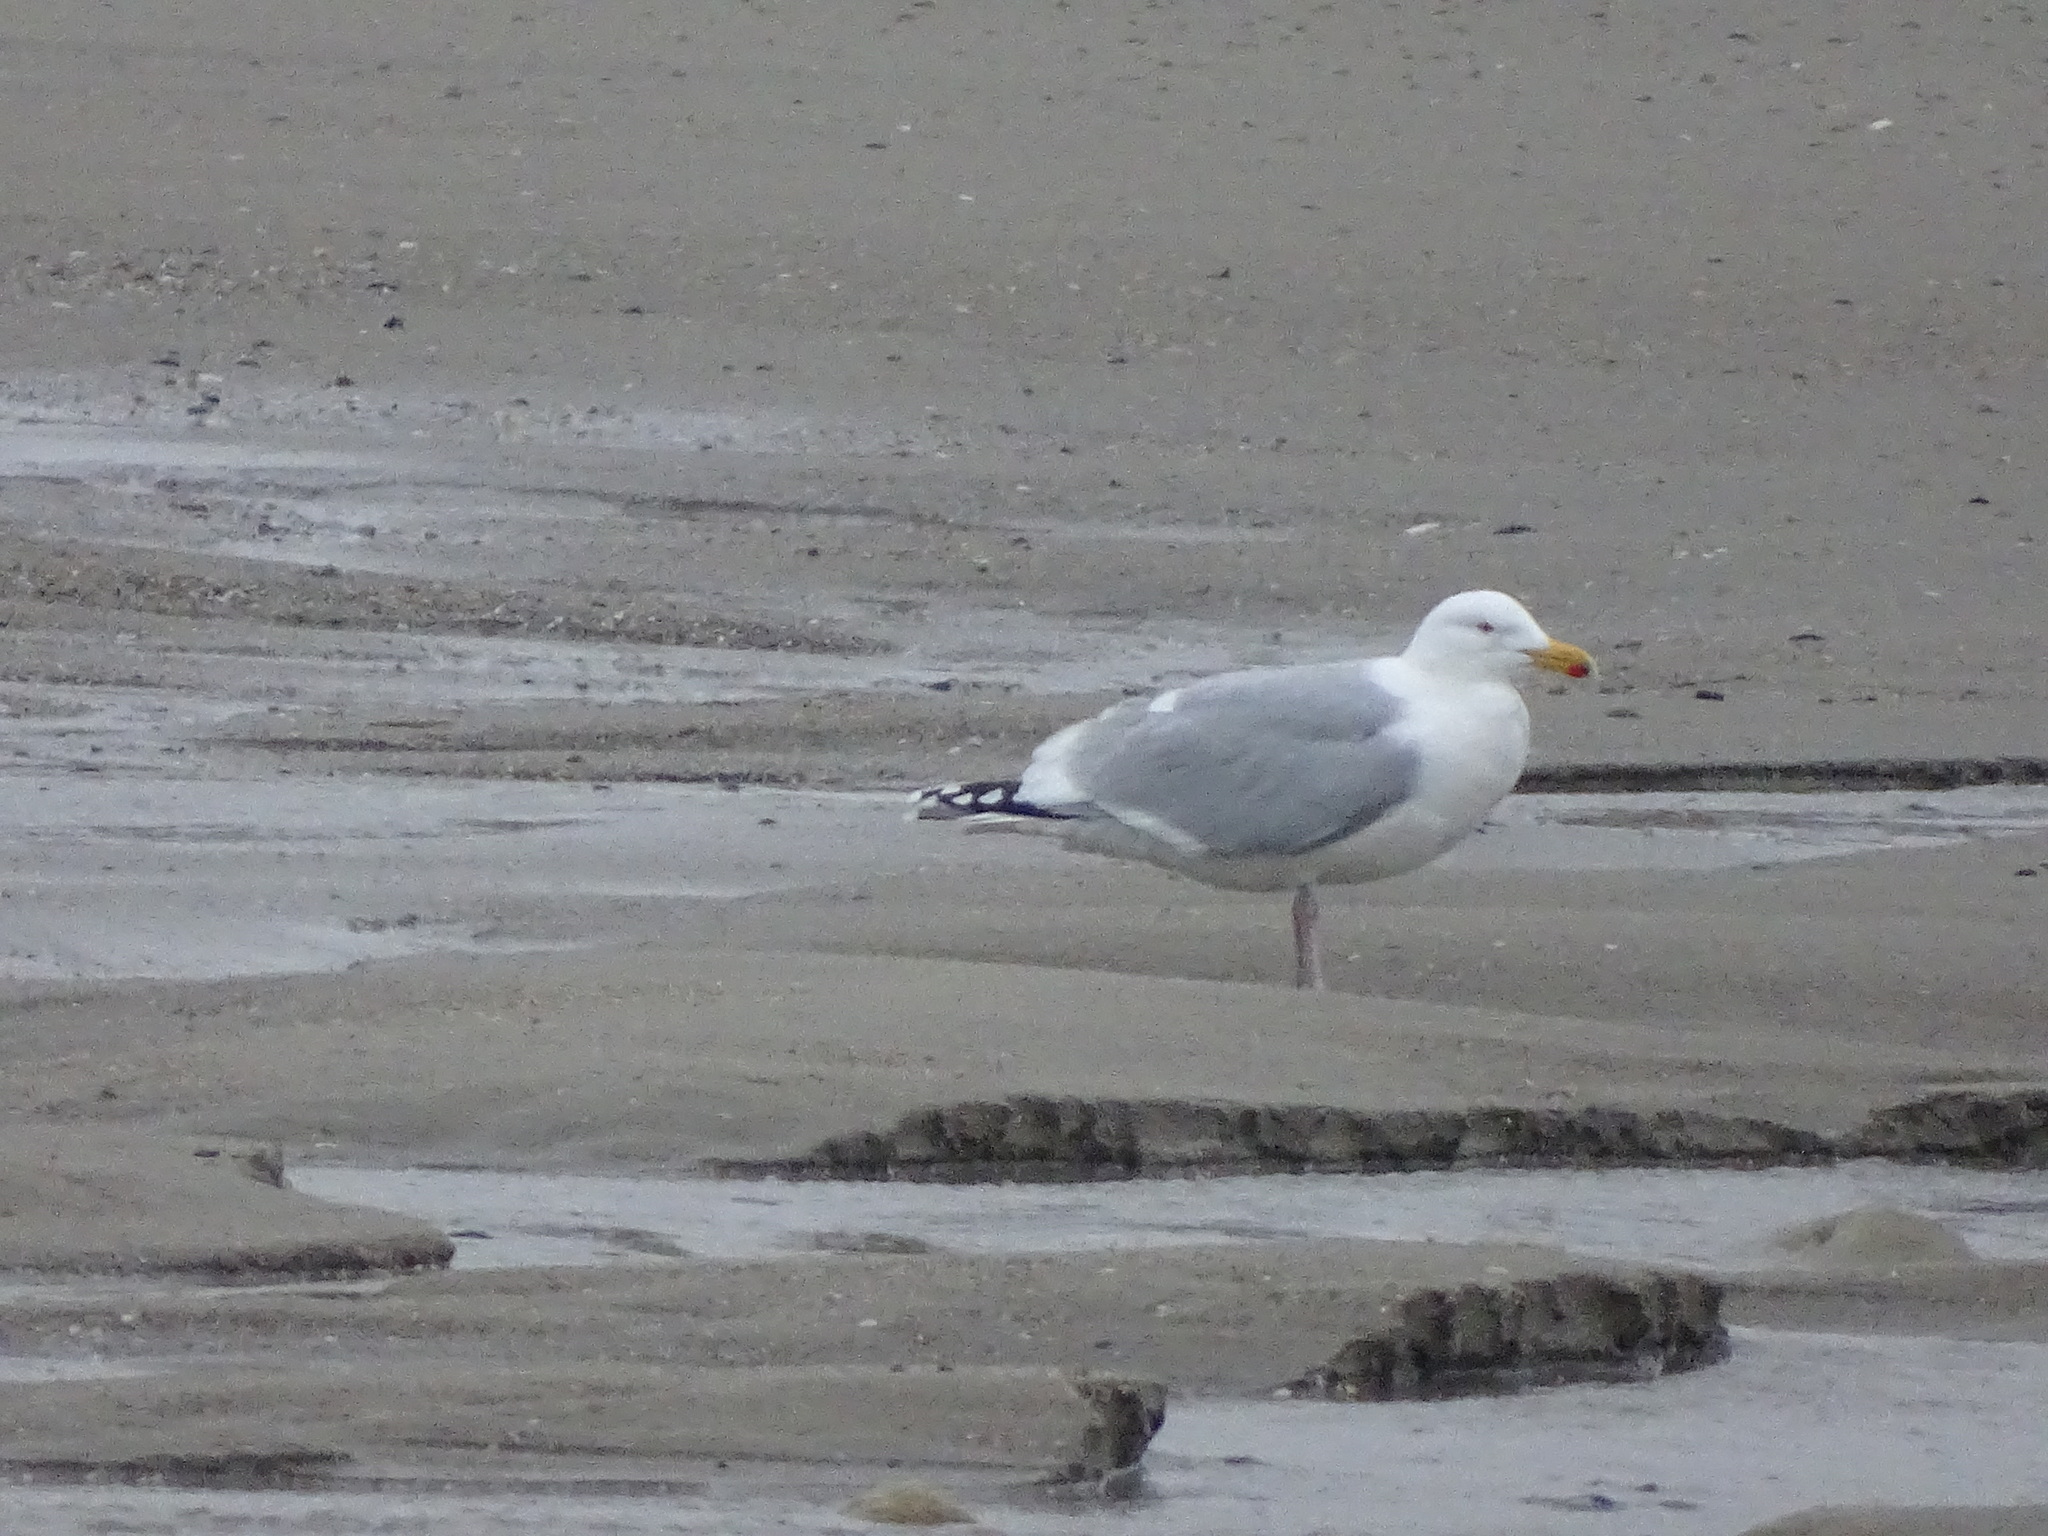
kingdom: Animalia
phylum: Chordata
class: Aves
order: Charadriiformes
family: Laridae
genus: Larus
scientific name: Larus argentatus
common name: Herring gull
